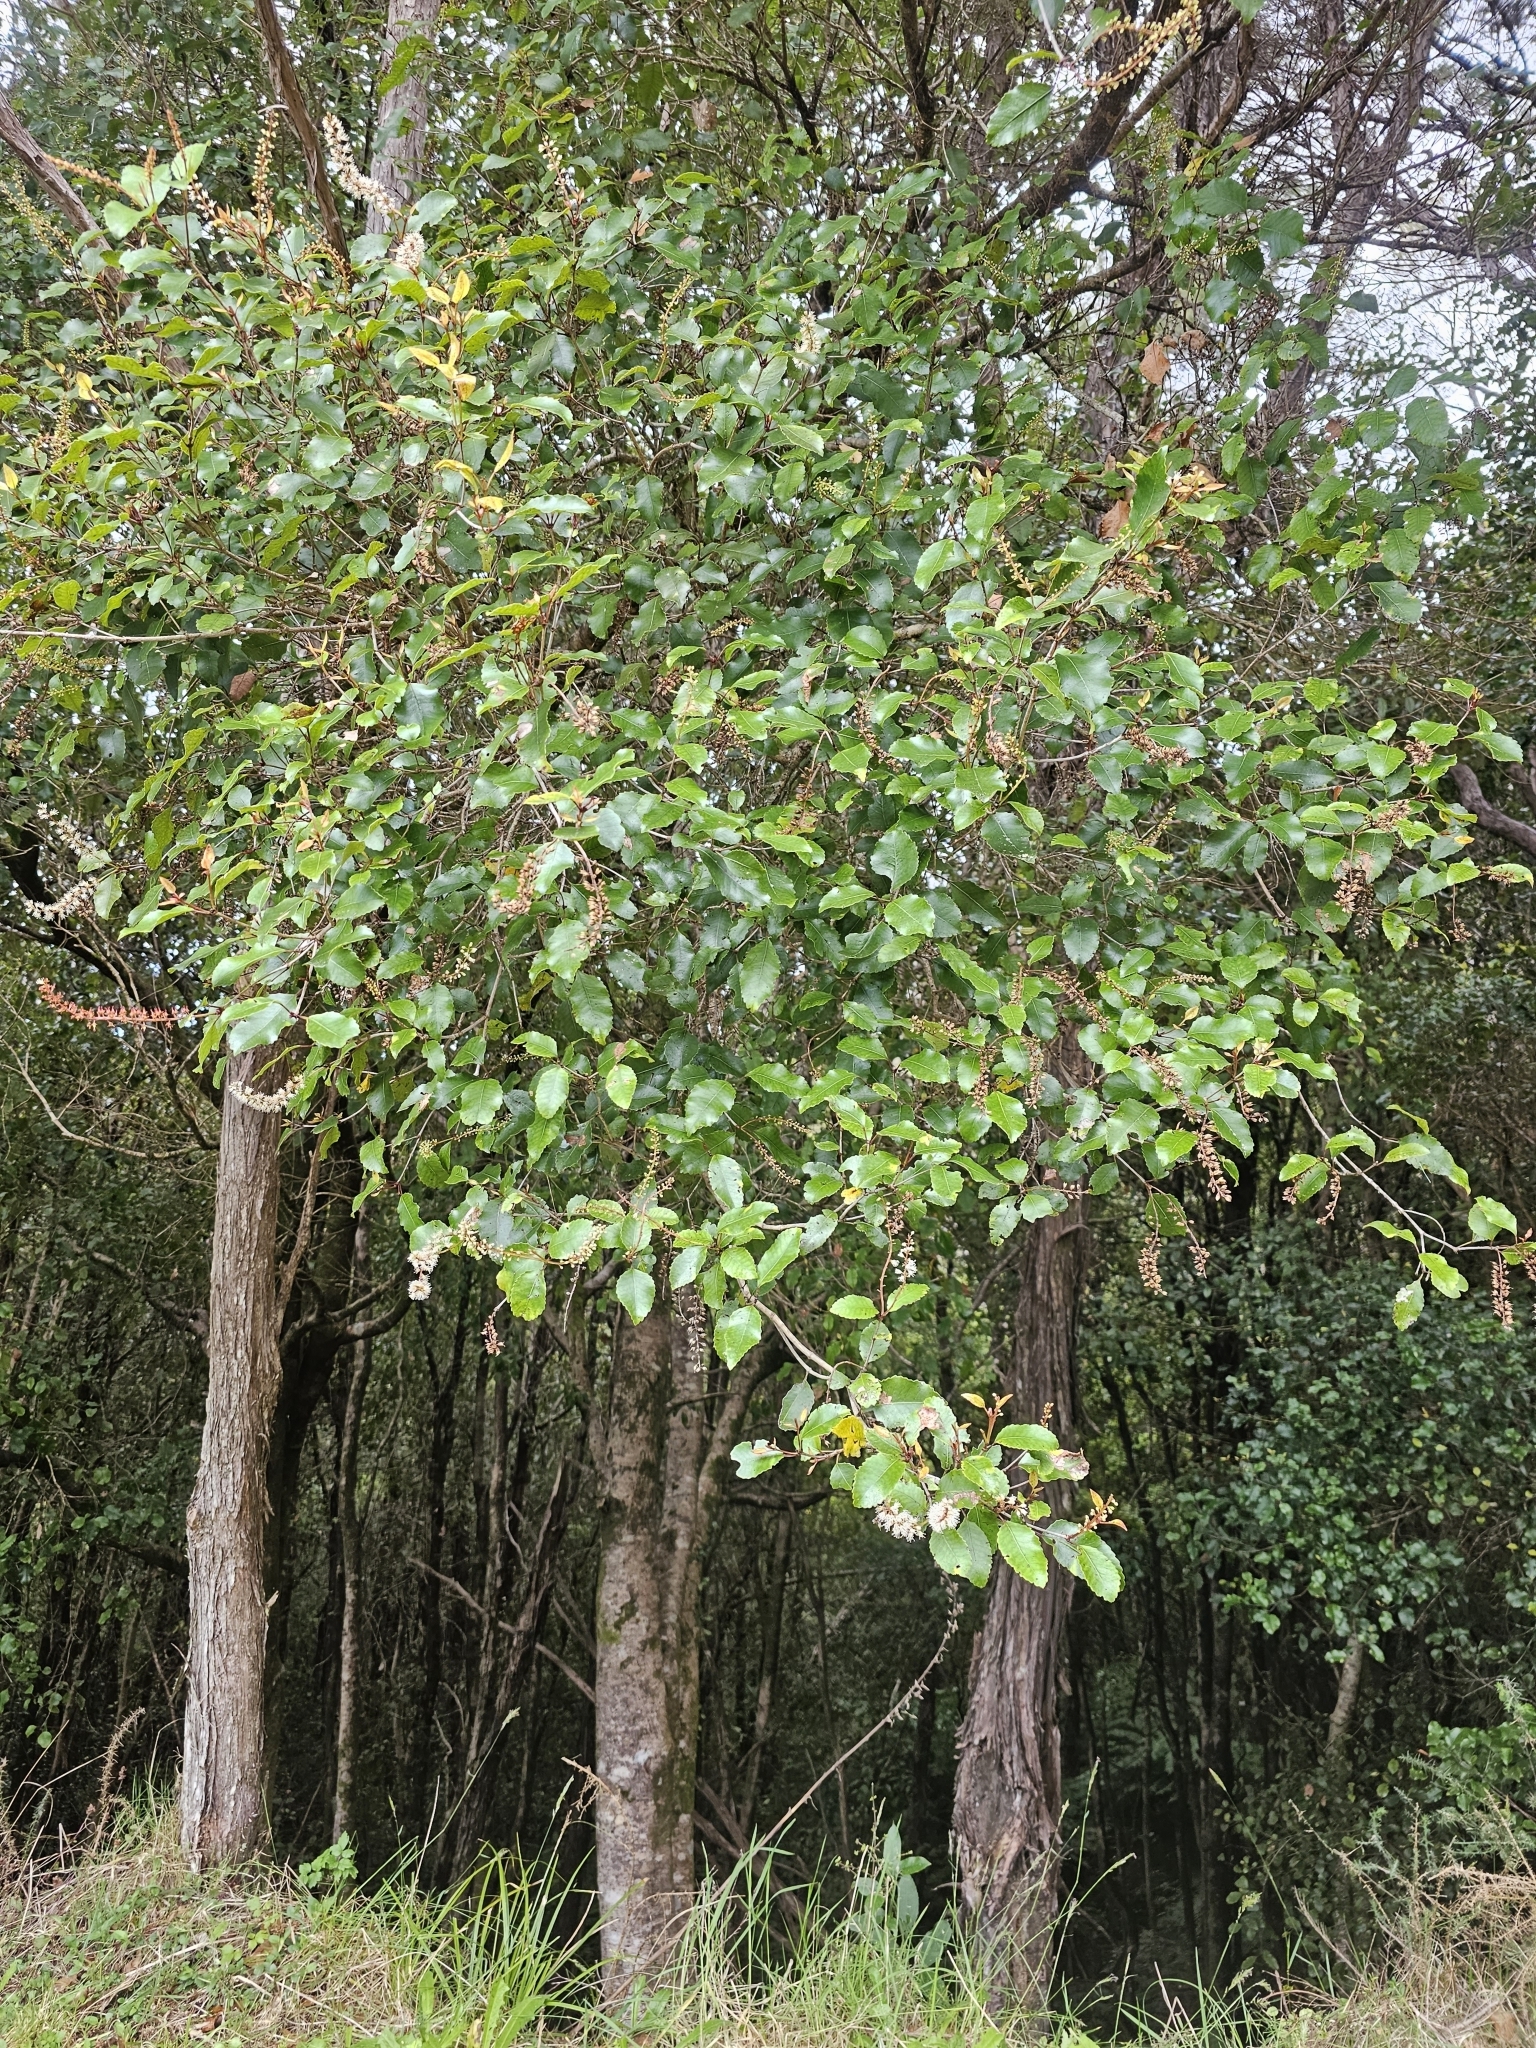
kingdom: Plantae
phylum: Tracheophyta
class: Magnoliopsida
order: Oxalidales
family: Cunoniaceae
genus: Pterophylla
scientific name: Pterophylla racemosa
